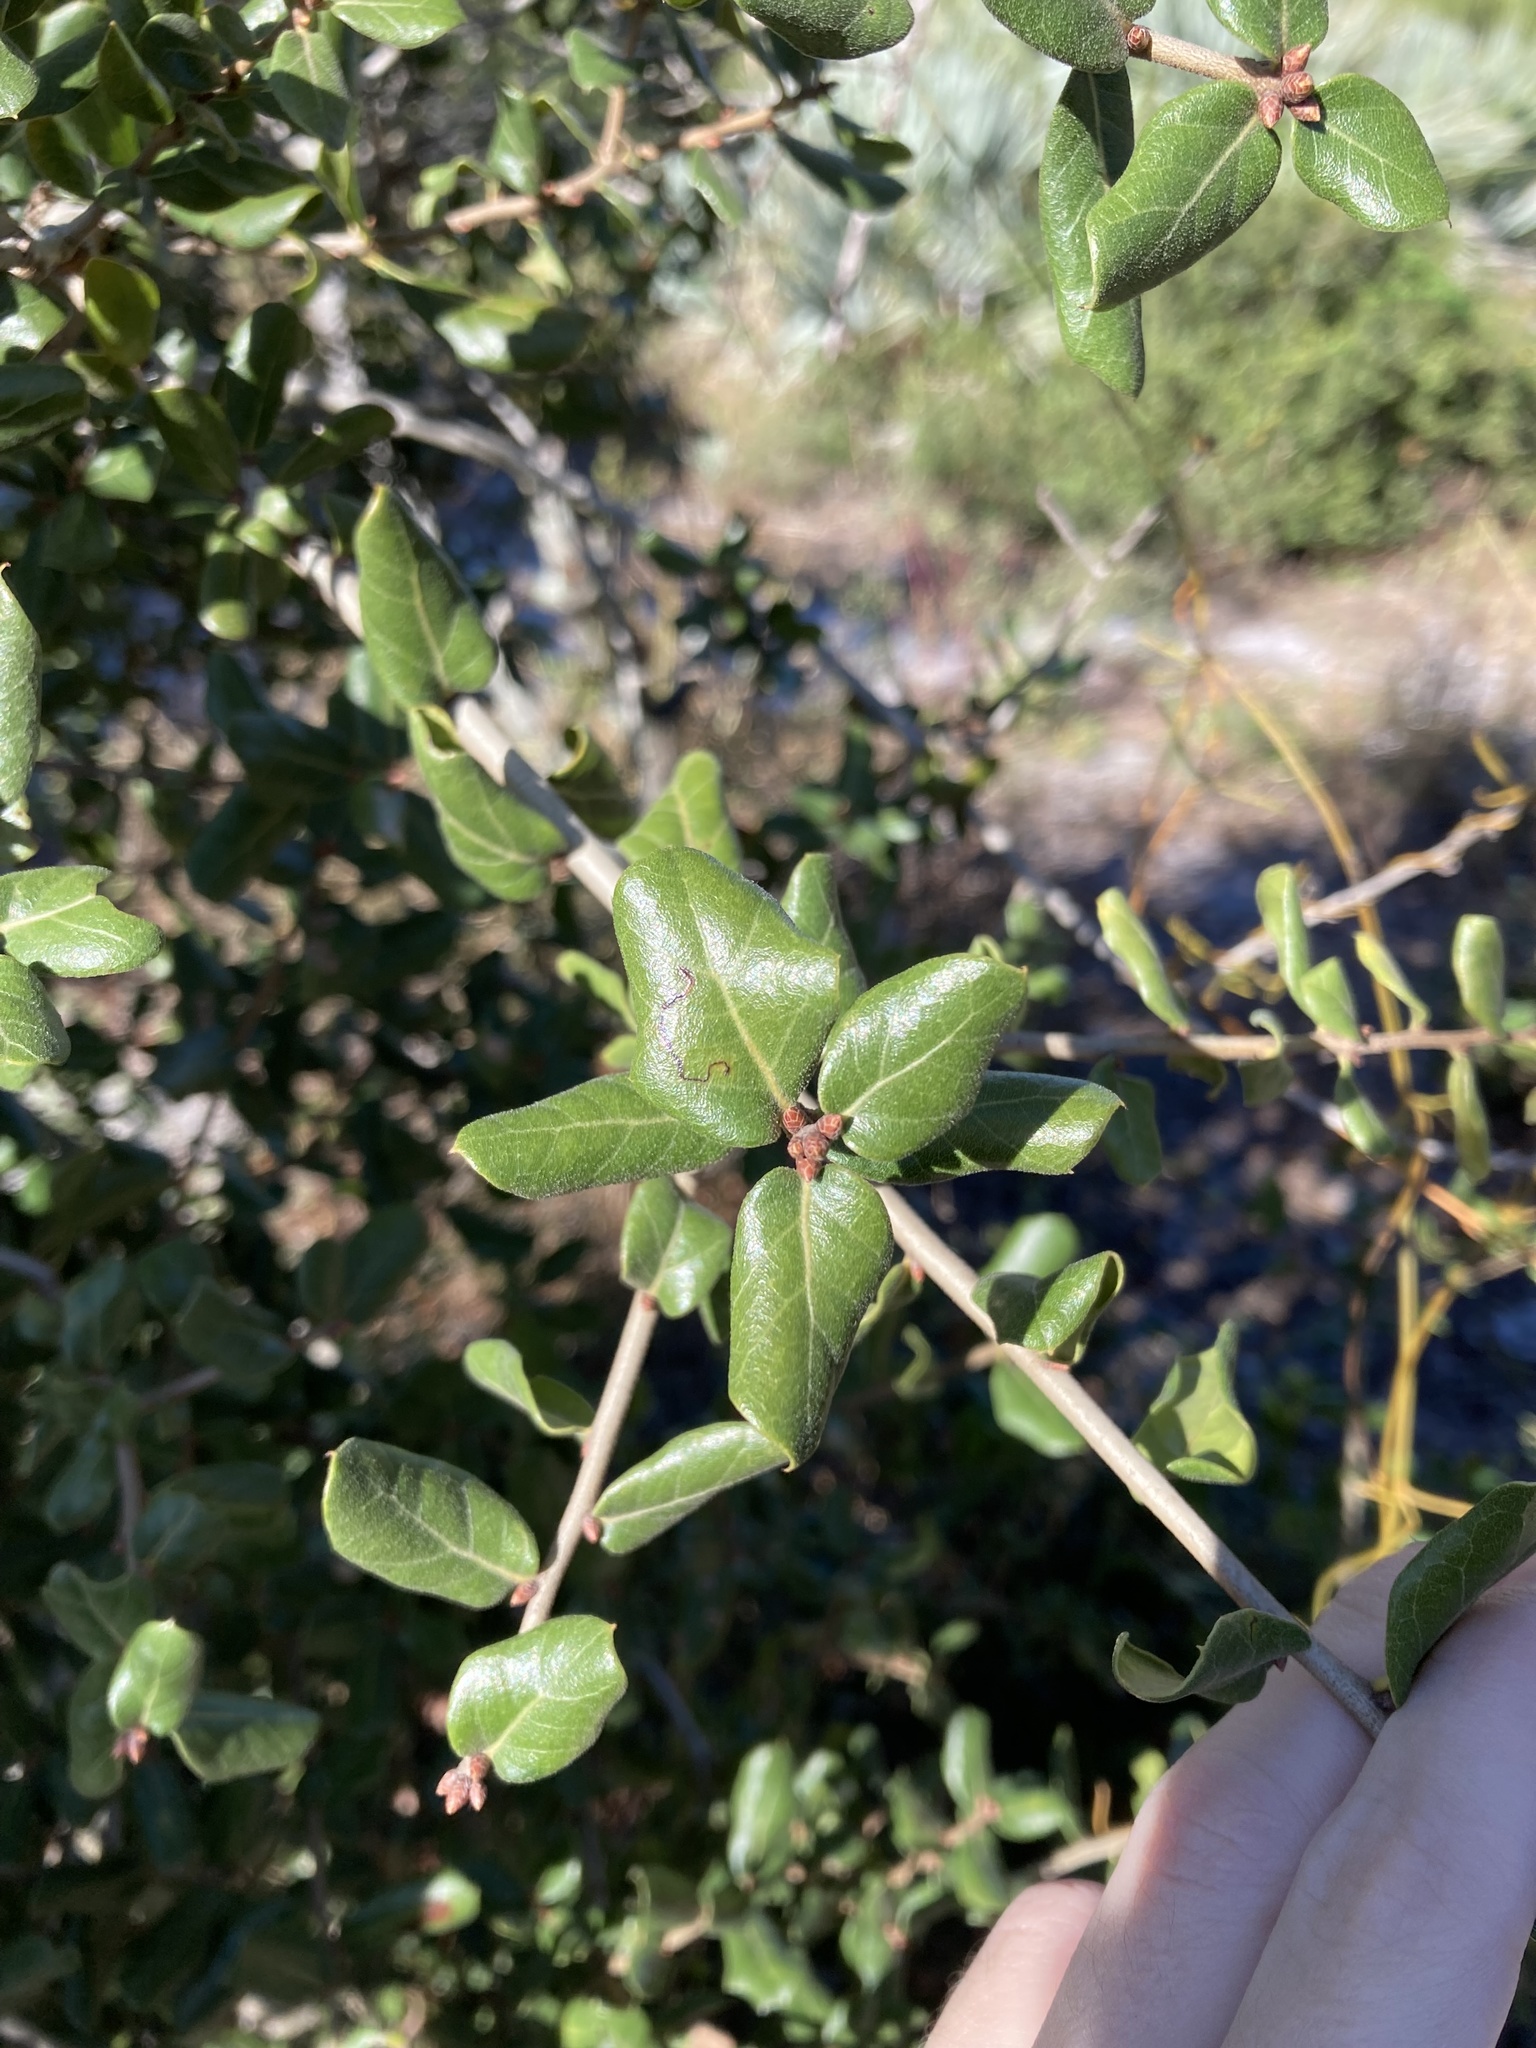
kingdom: Plantae
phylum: Tracheophyta
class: Magnoliopsida
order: Fagales
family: Fagaceae
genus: Quercus
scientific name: Quercus myrtifolia
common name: Myrtle oak
